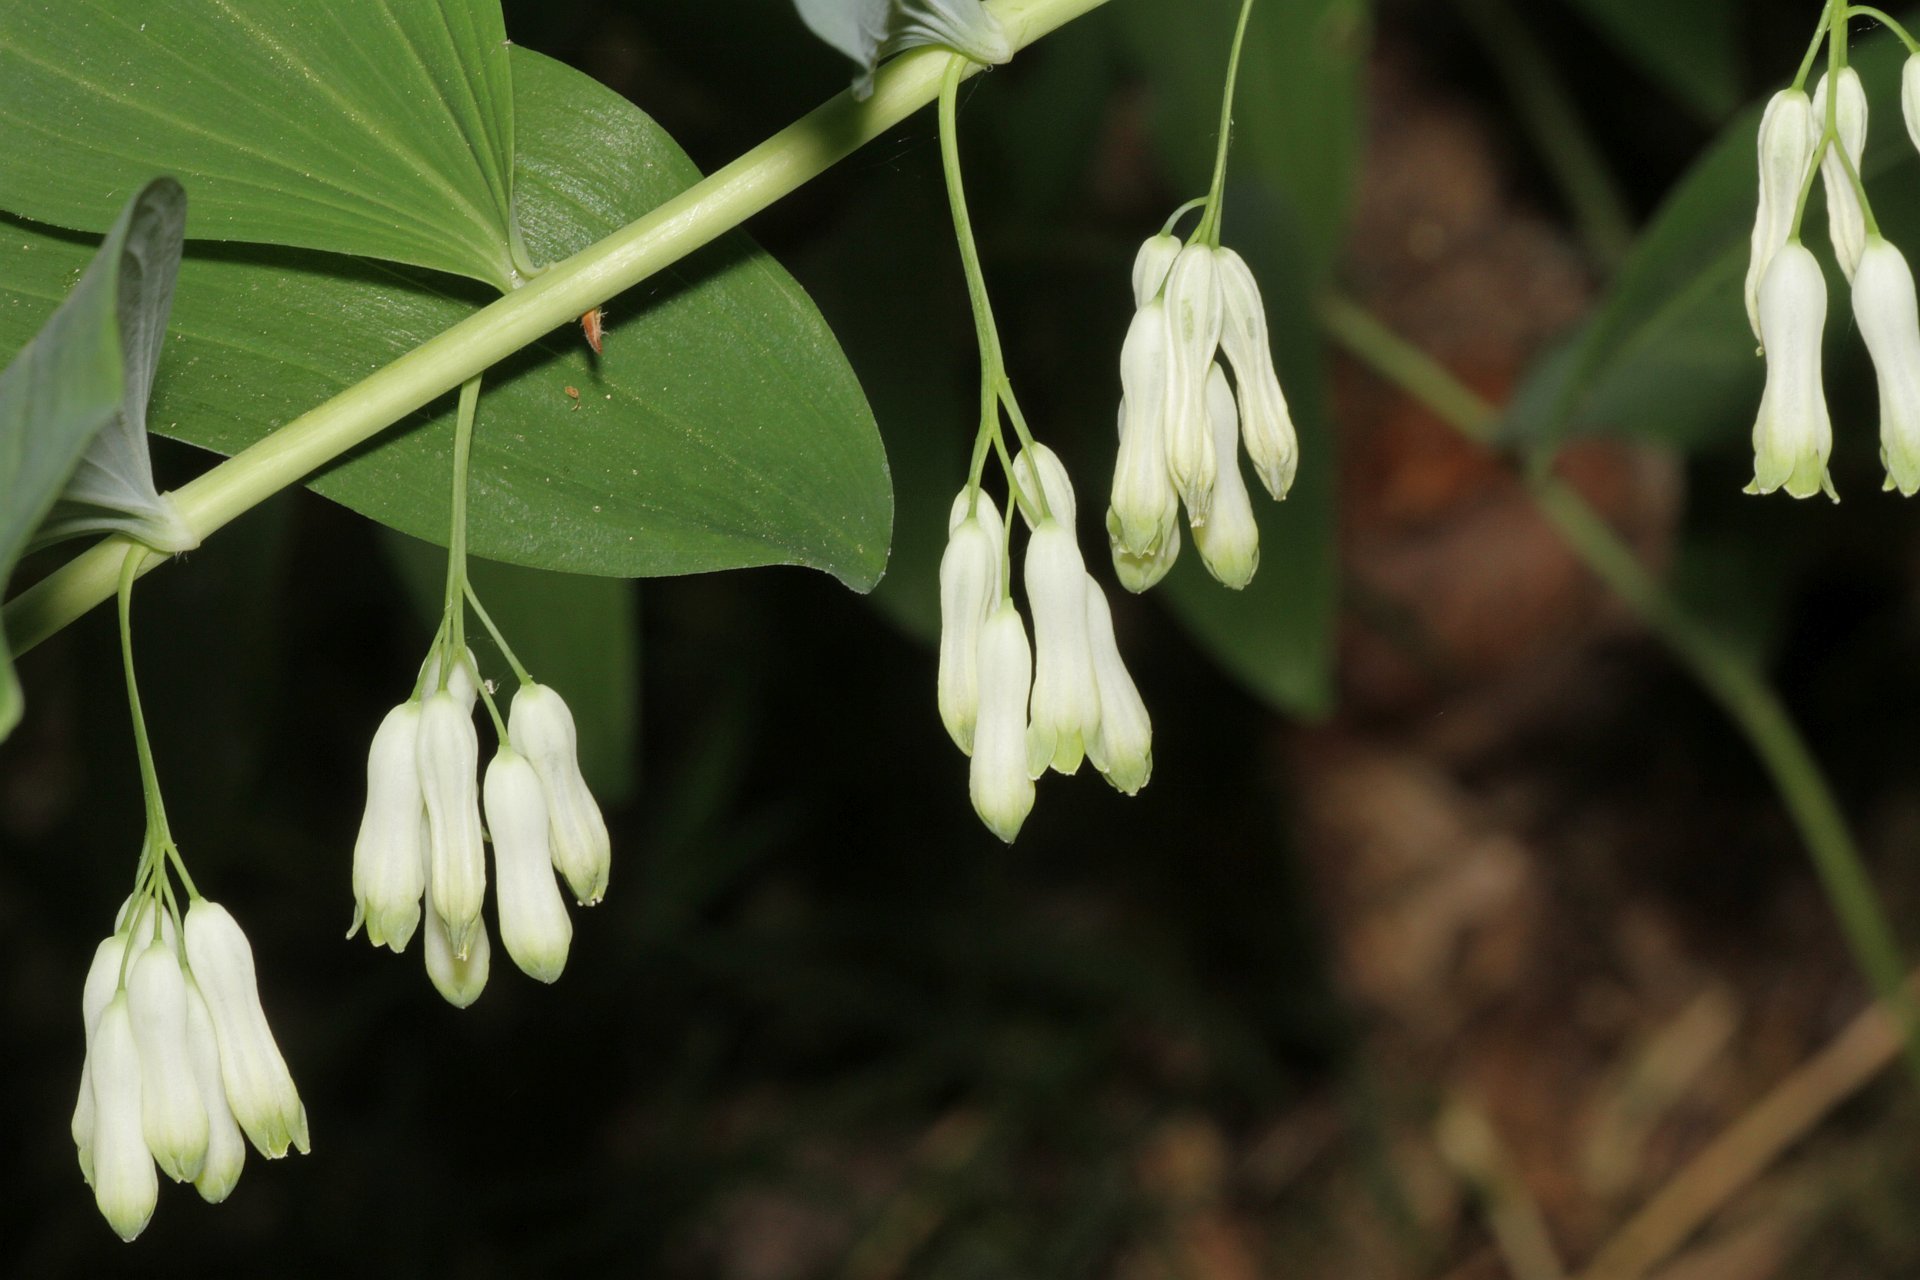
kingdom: Plantae
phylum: Tracheophyta
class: Liliopsida
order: Asparagales
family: Asparagaceae
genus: Polygonatum
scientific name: Polygonatum multiflorum
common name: Solomon's-seal
